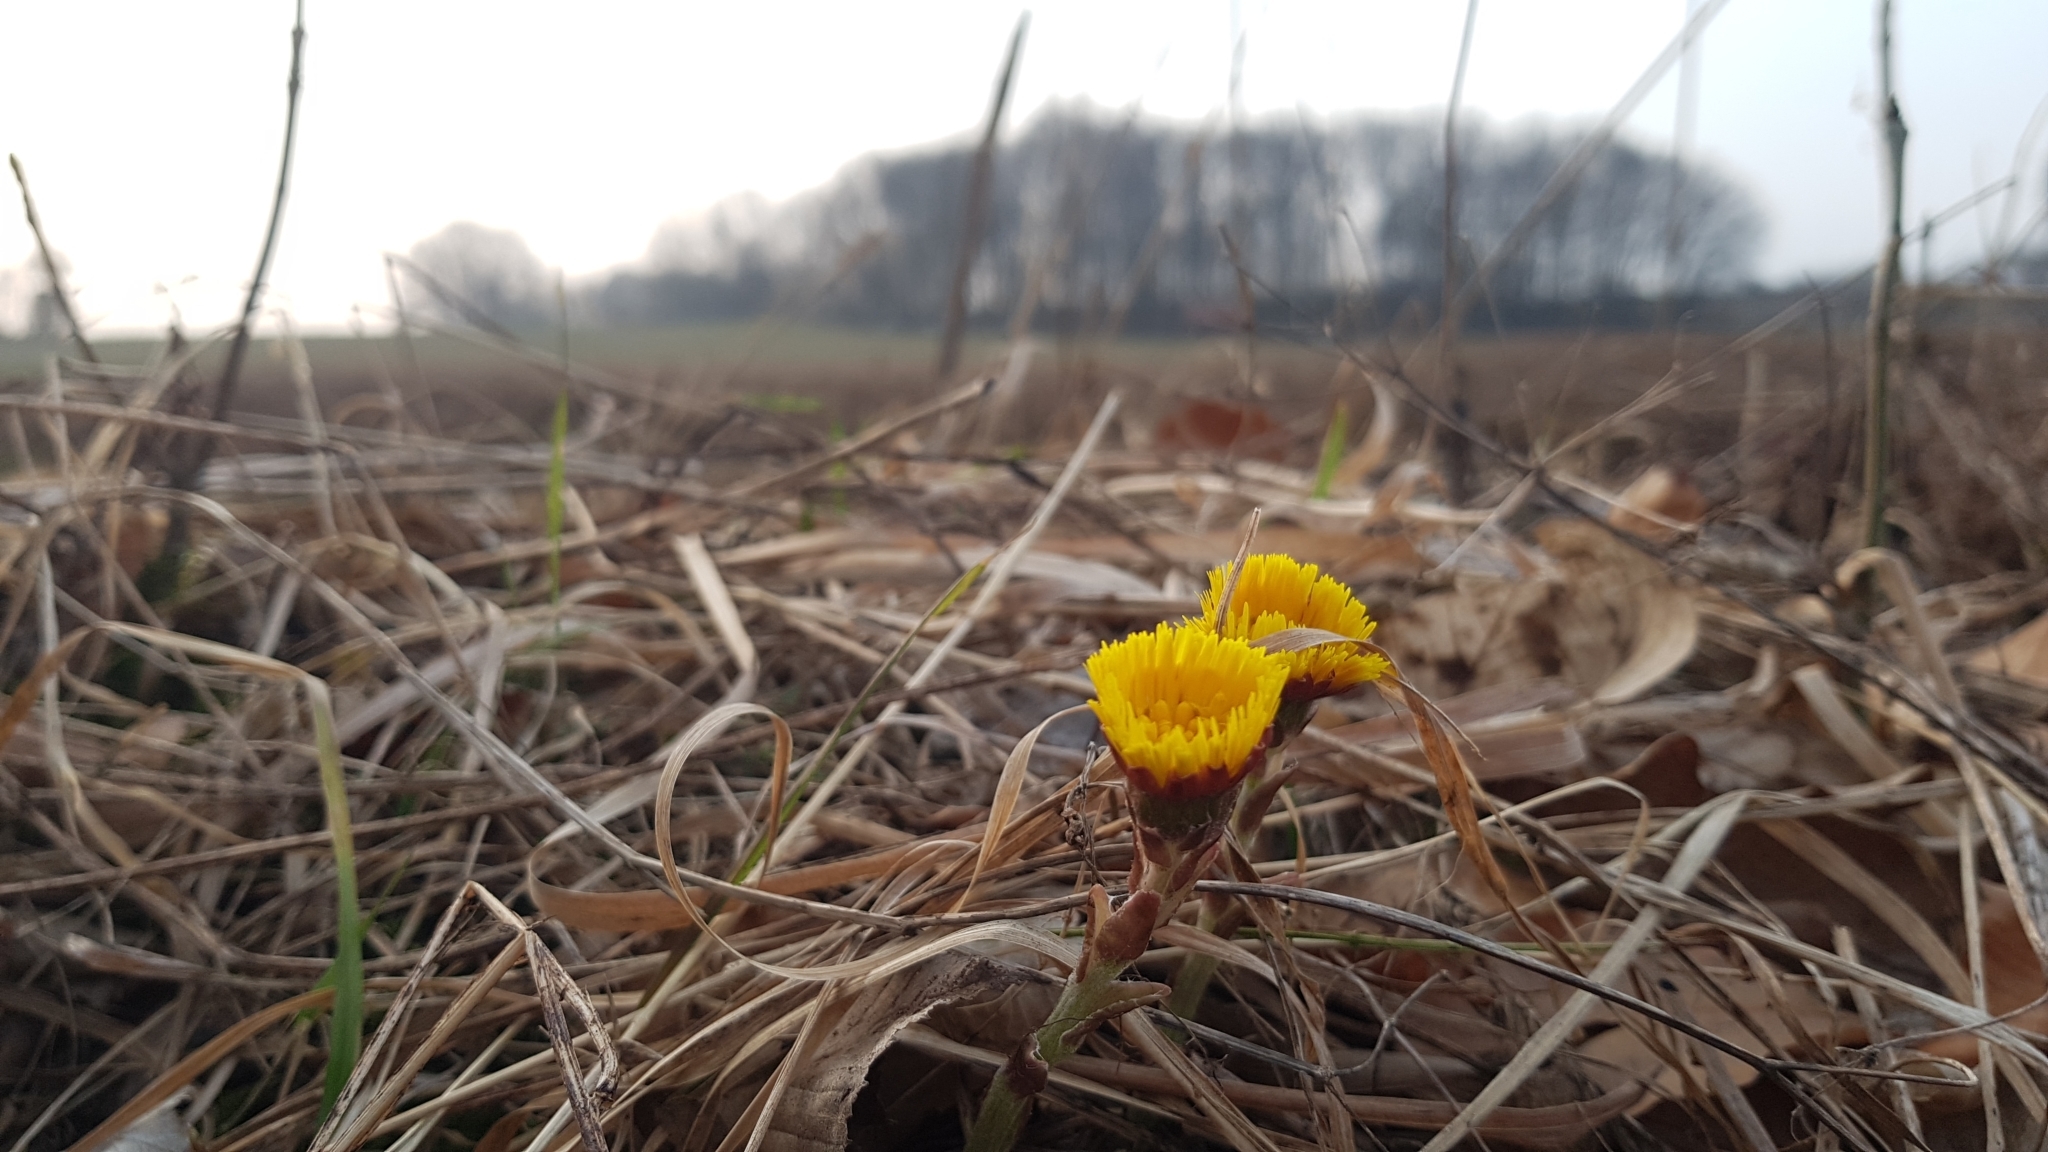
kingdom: Plantae
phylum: Tracheophyta
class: Magnoliopsida
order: Asterales
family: Asteraceae
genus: Tussilago
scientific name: Tussilago farfara
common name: Coltsfoot
